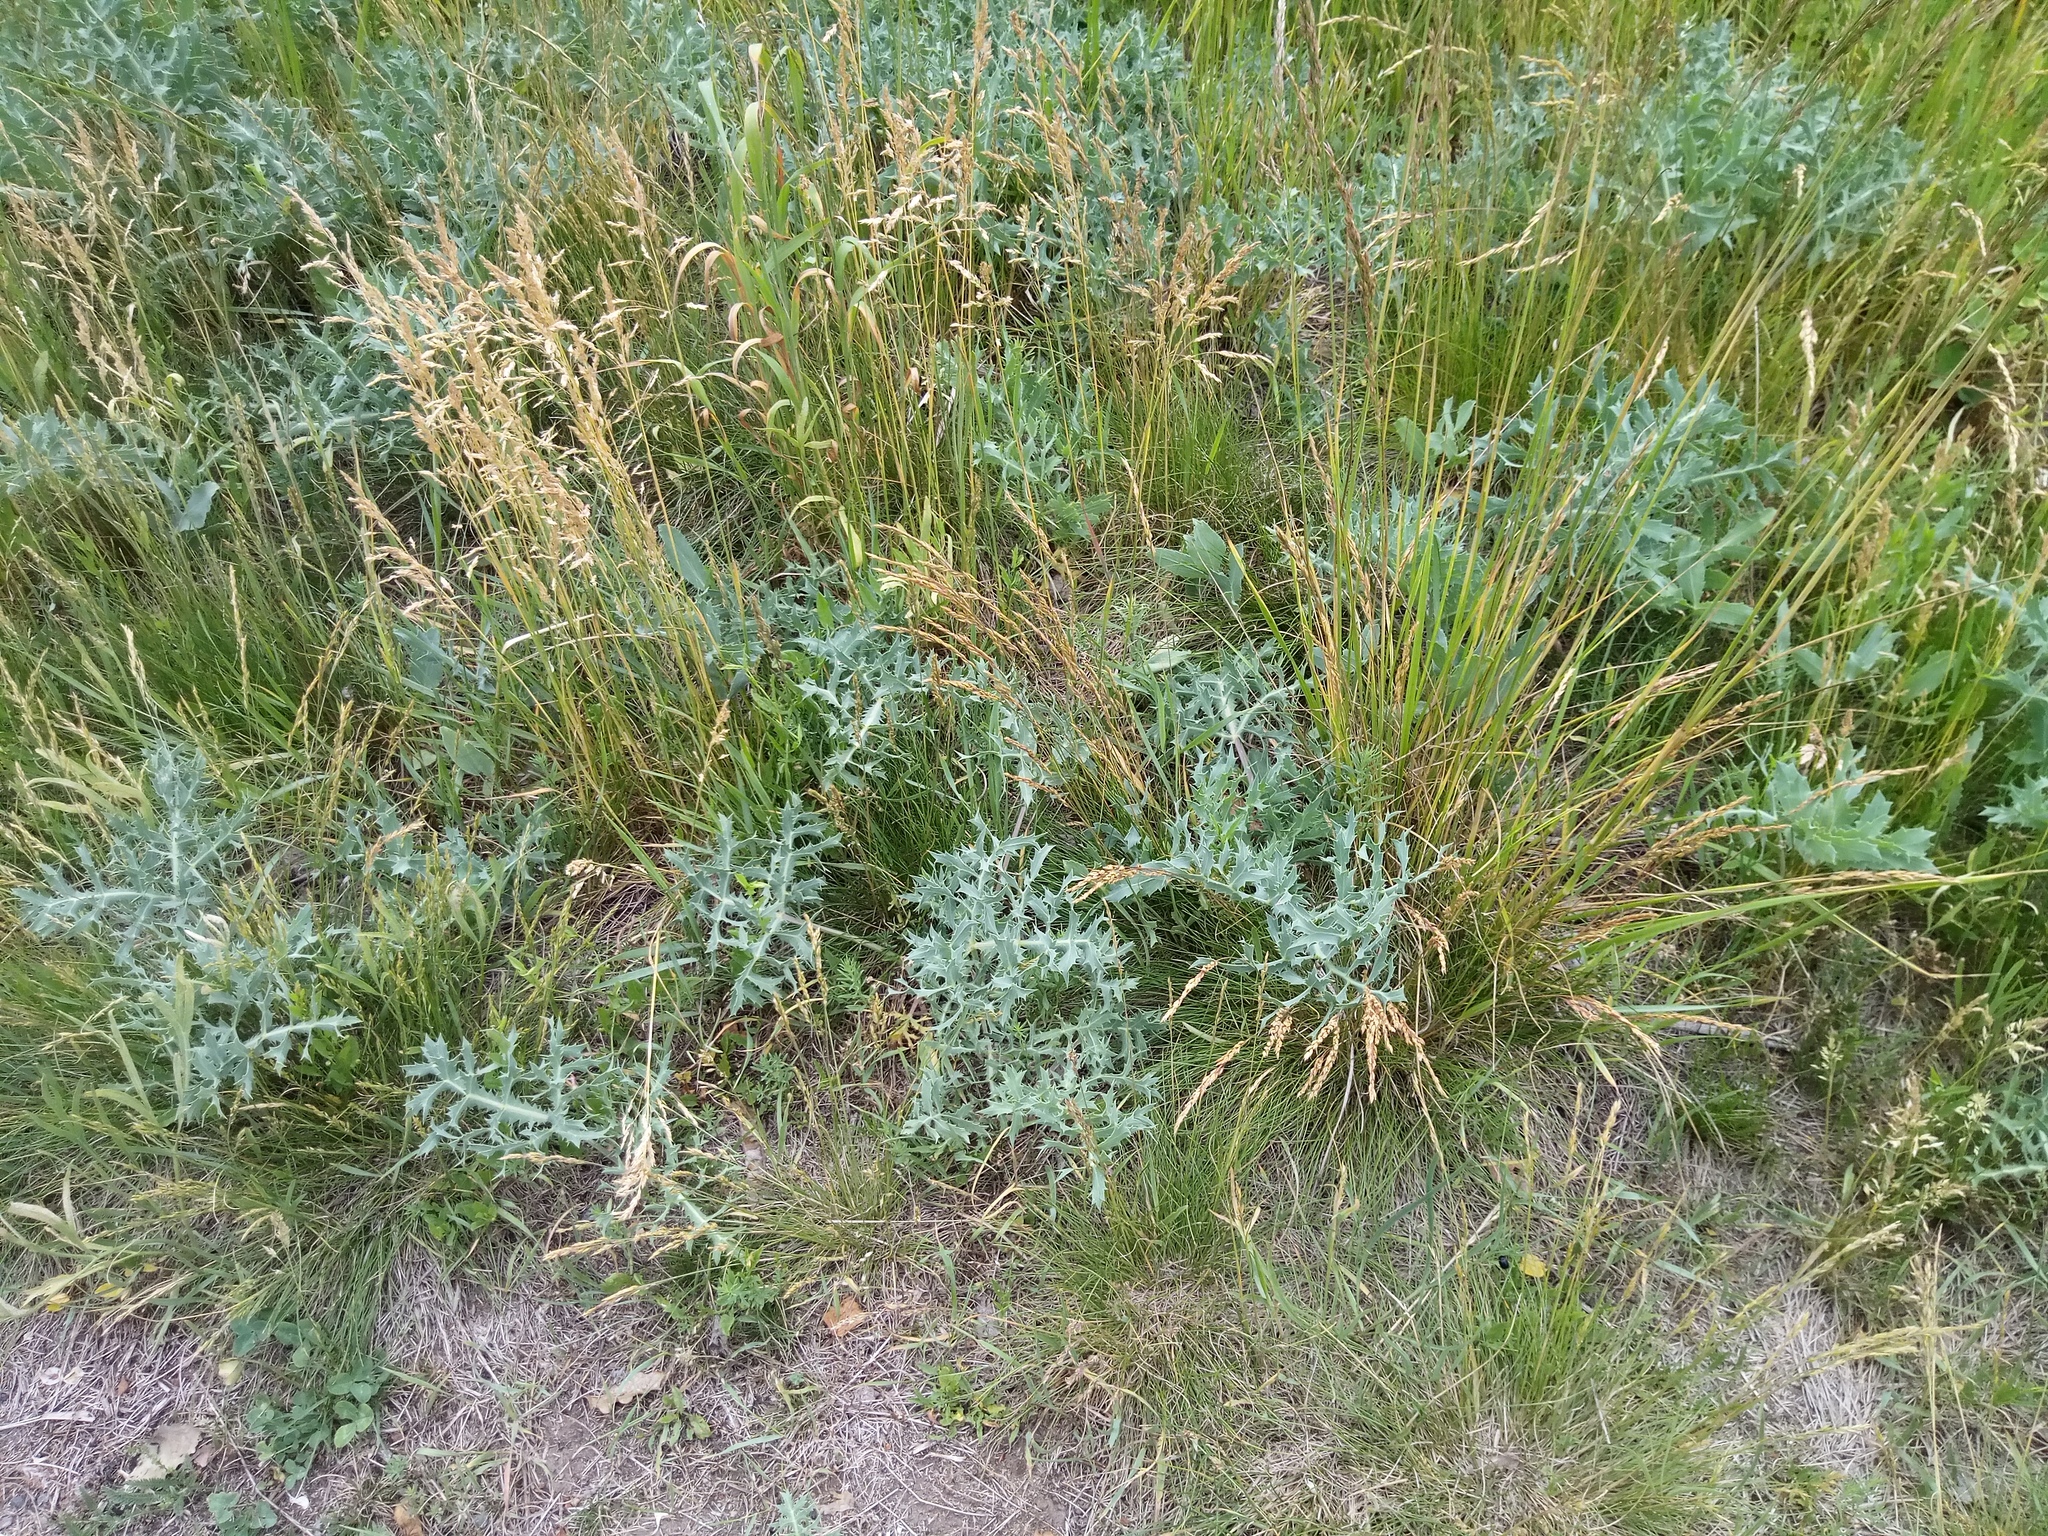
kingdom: Plantae
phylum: Tracheophyta
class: Magnoliopsida
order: Apiales
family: Apiaceae
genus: Eryngium
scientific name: Eryngium campestre
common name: Field eryngo
